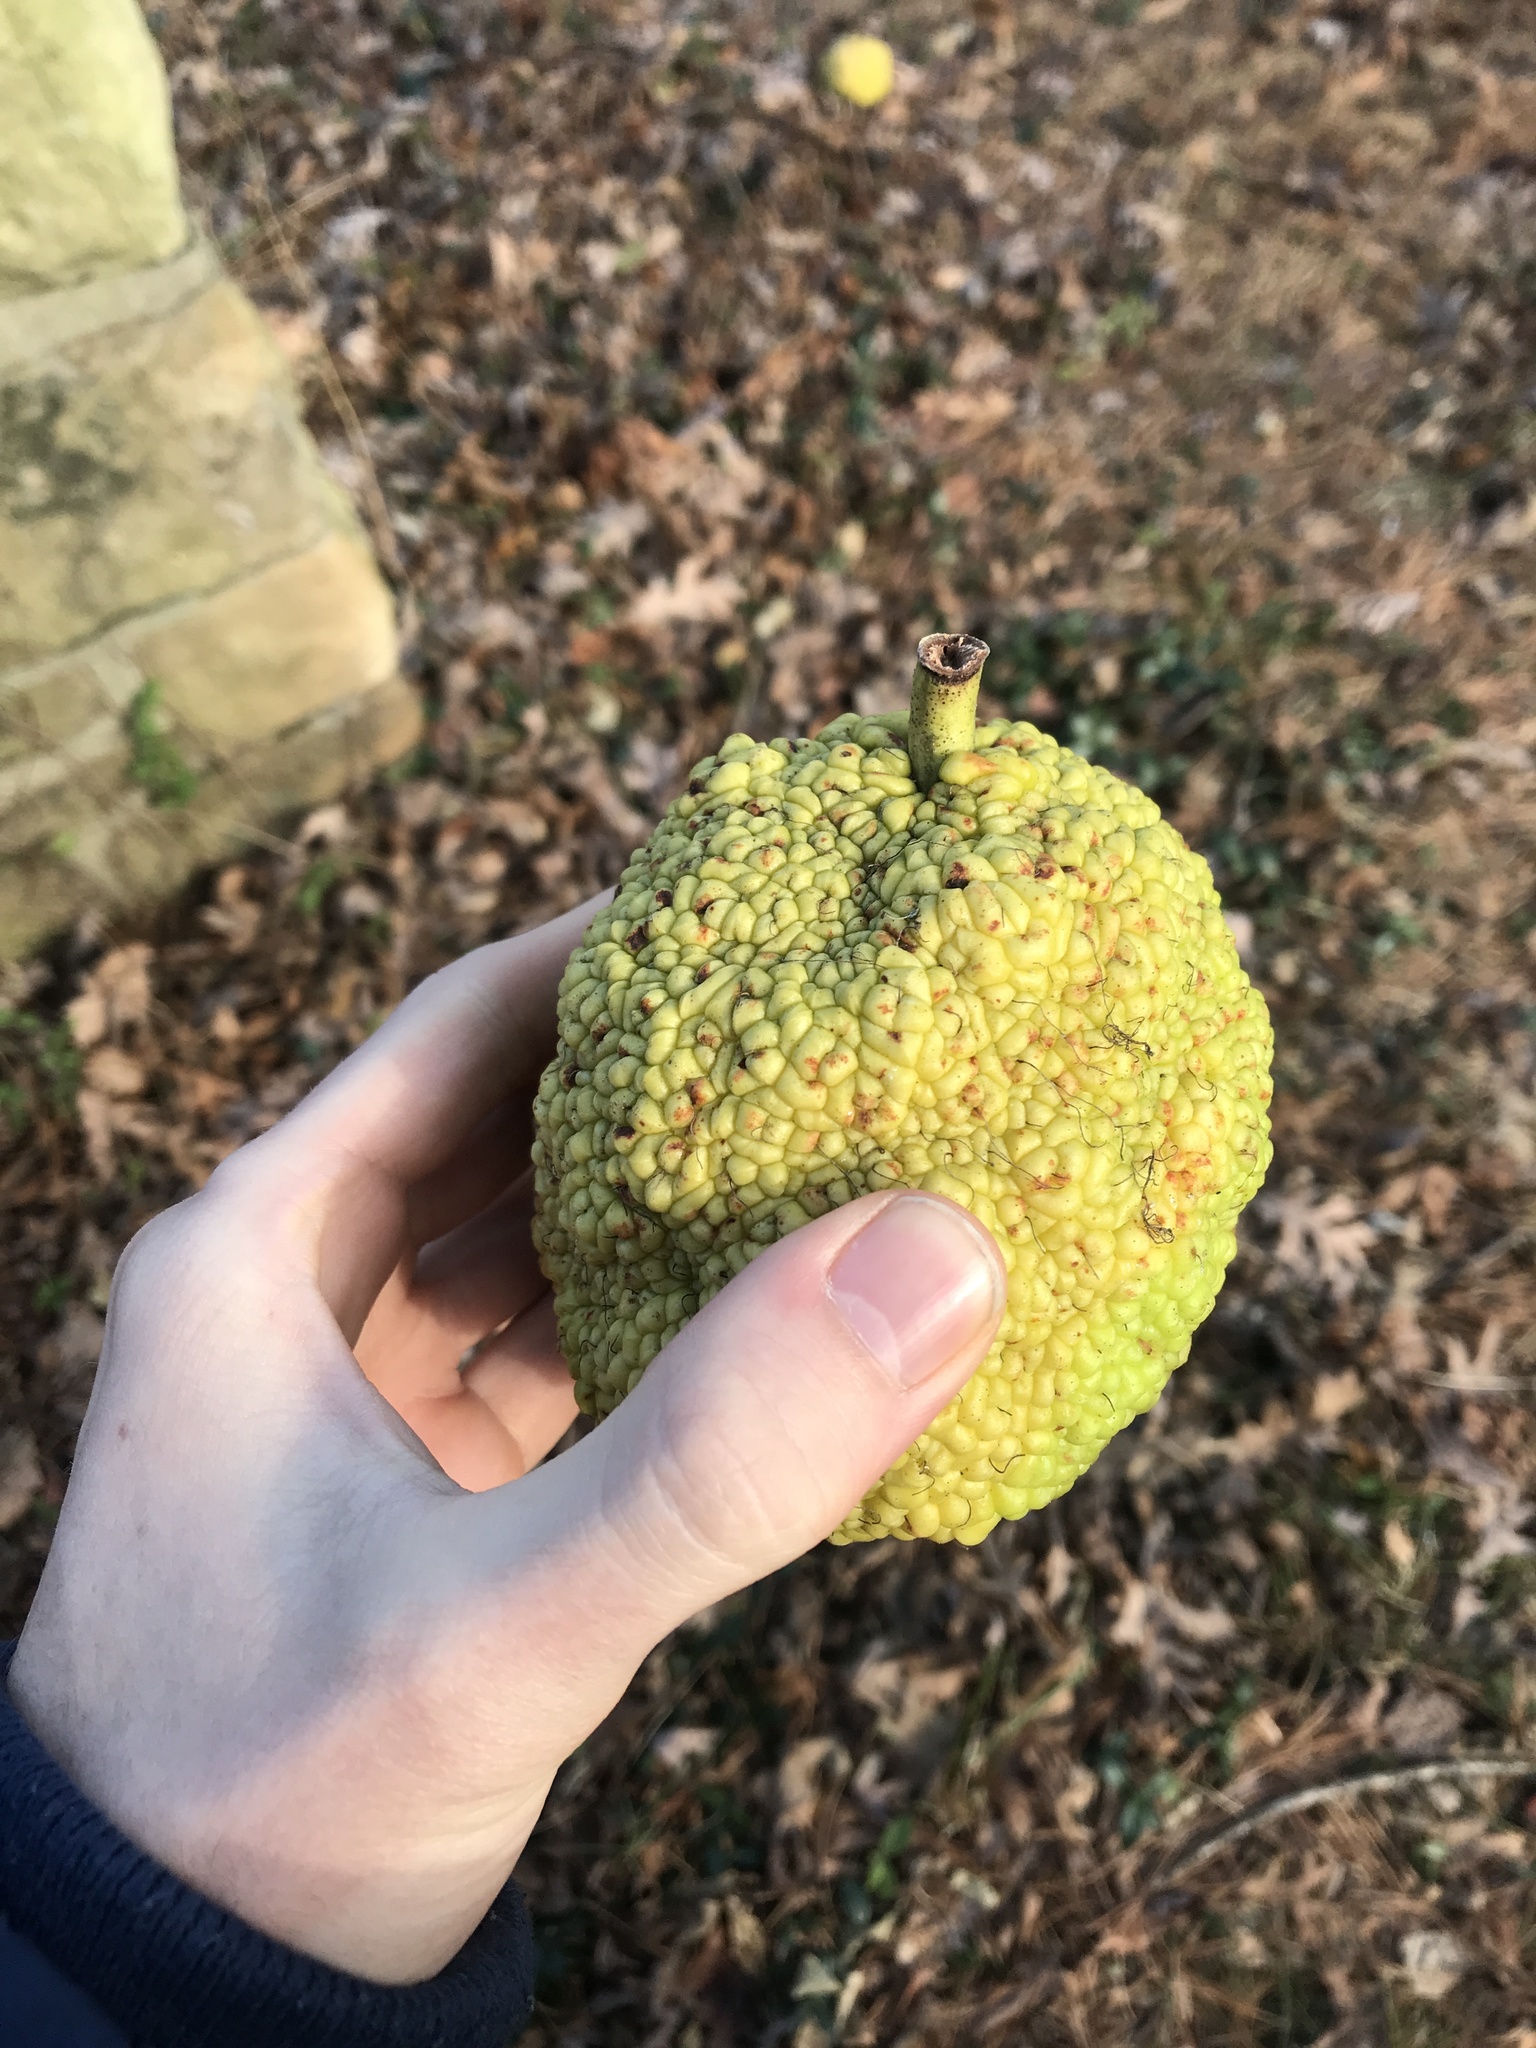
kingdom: Plantae
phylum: Tracheophyta
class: Magnoliopsida
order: Rosales
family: Moraceae
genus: Maclura
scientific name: Maclura pomifera
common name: Osage-orange
